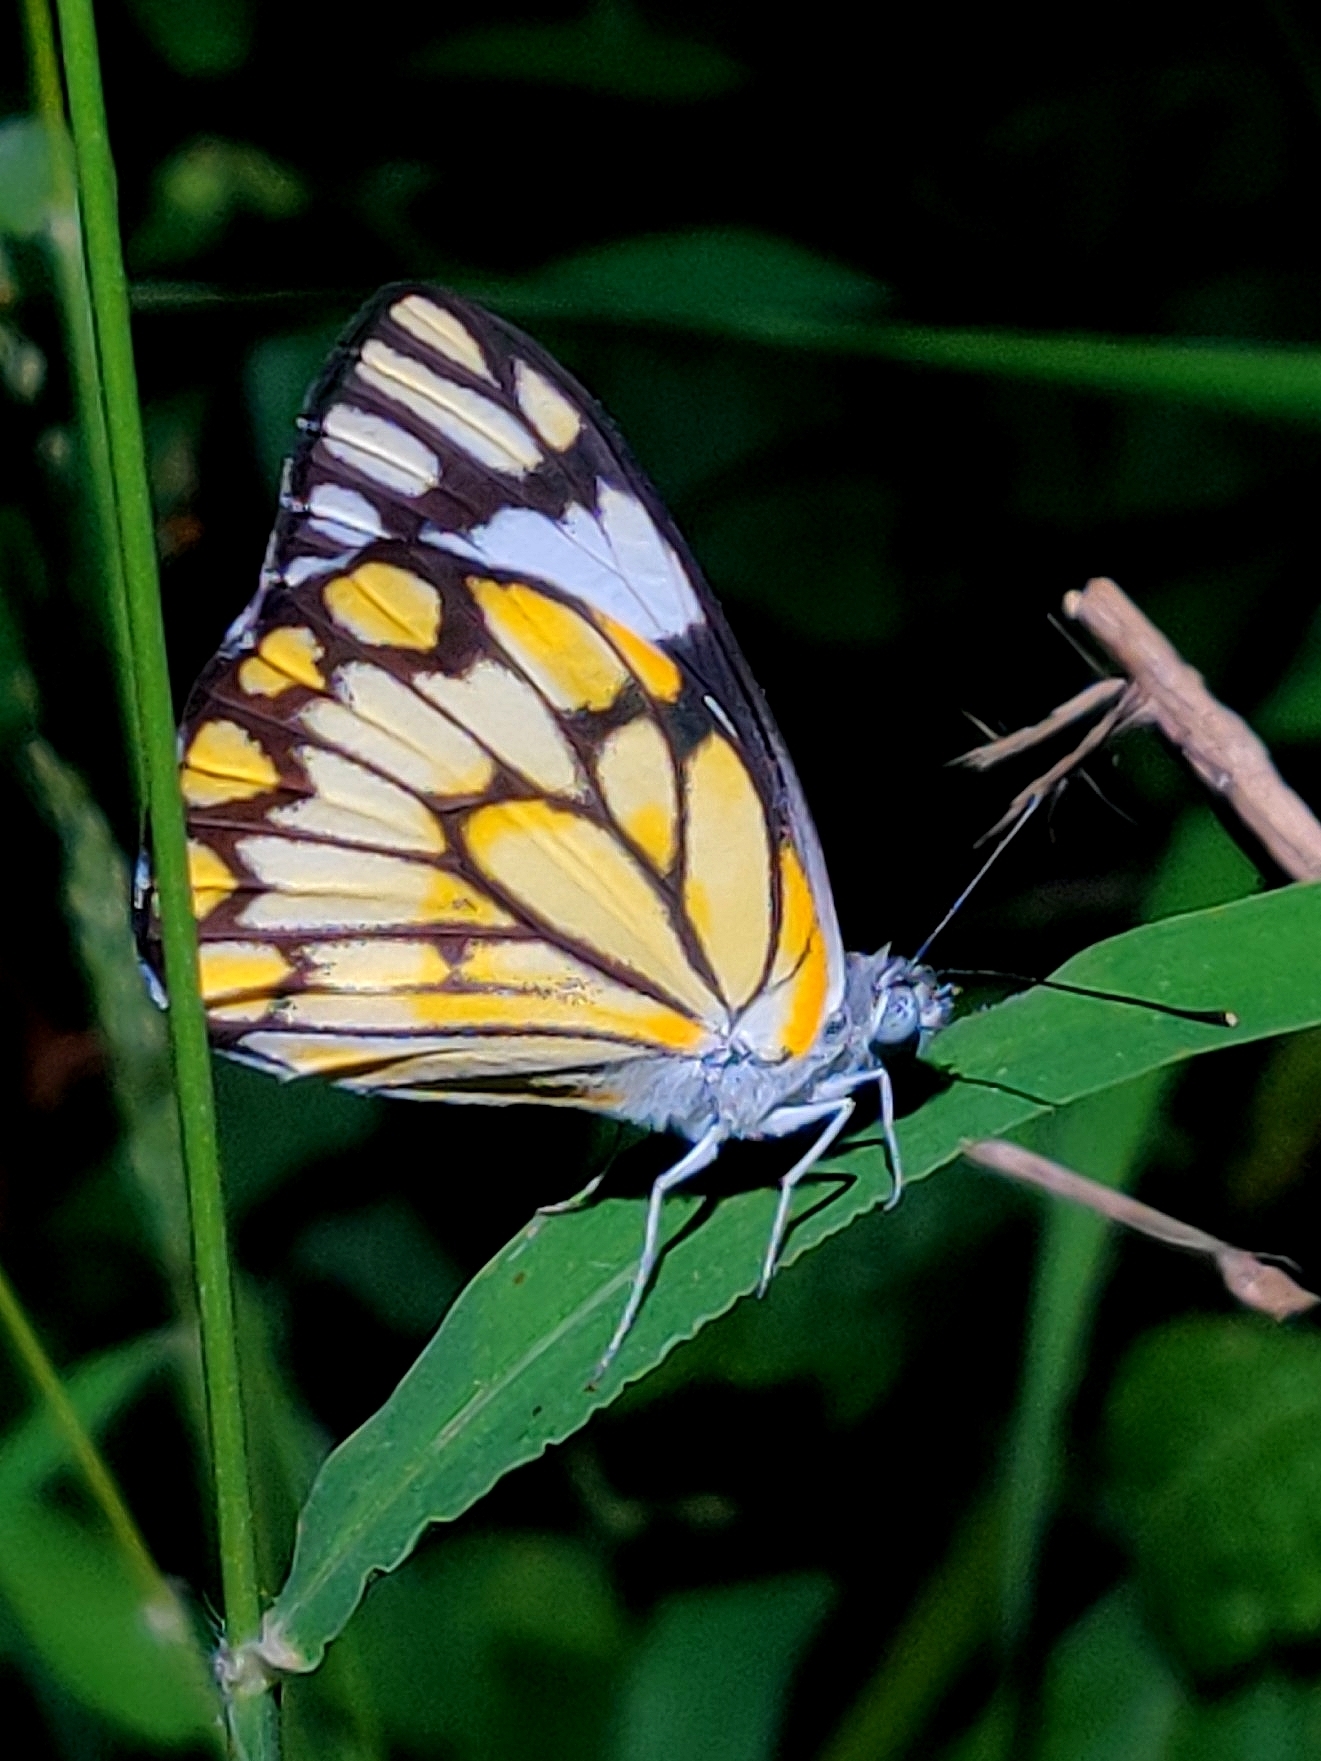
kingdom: Animalia
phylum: Arthropoda
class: Insecta
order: Lepidoptera
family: Pieridae
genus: Belenois
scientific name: Belenois aurota
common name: Brown-veined white
